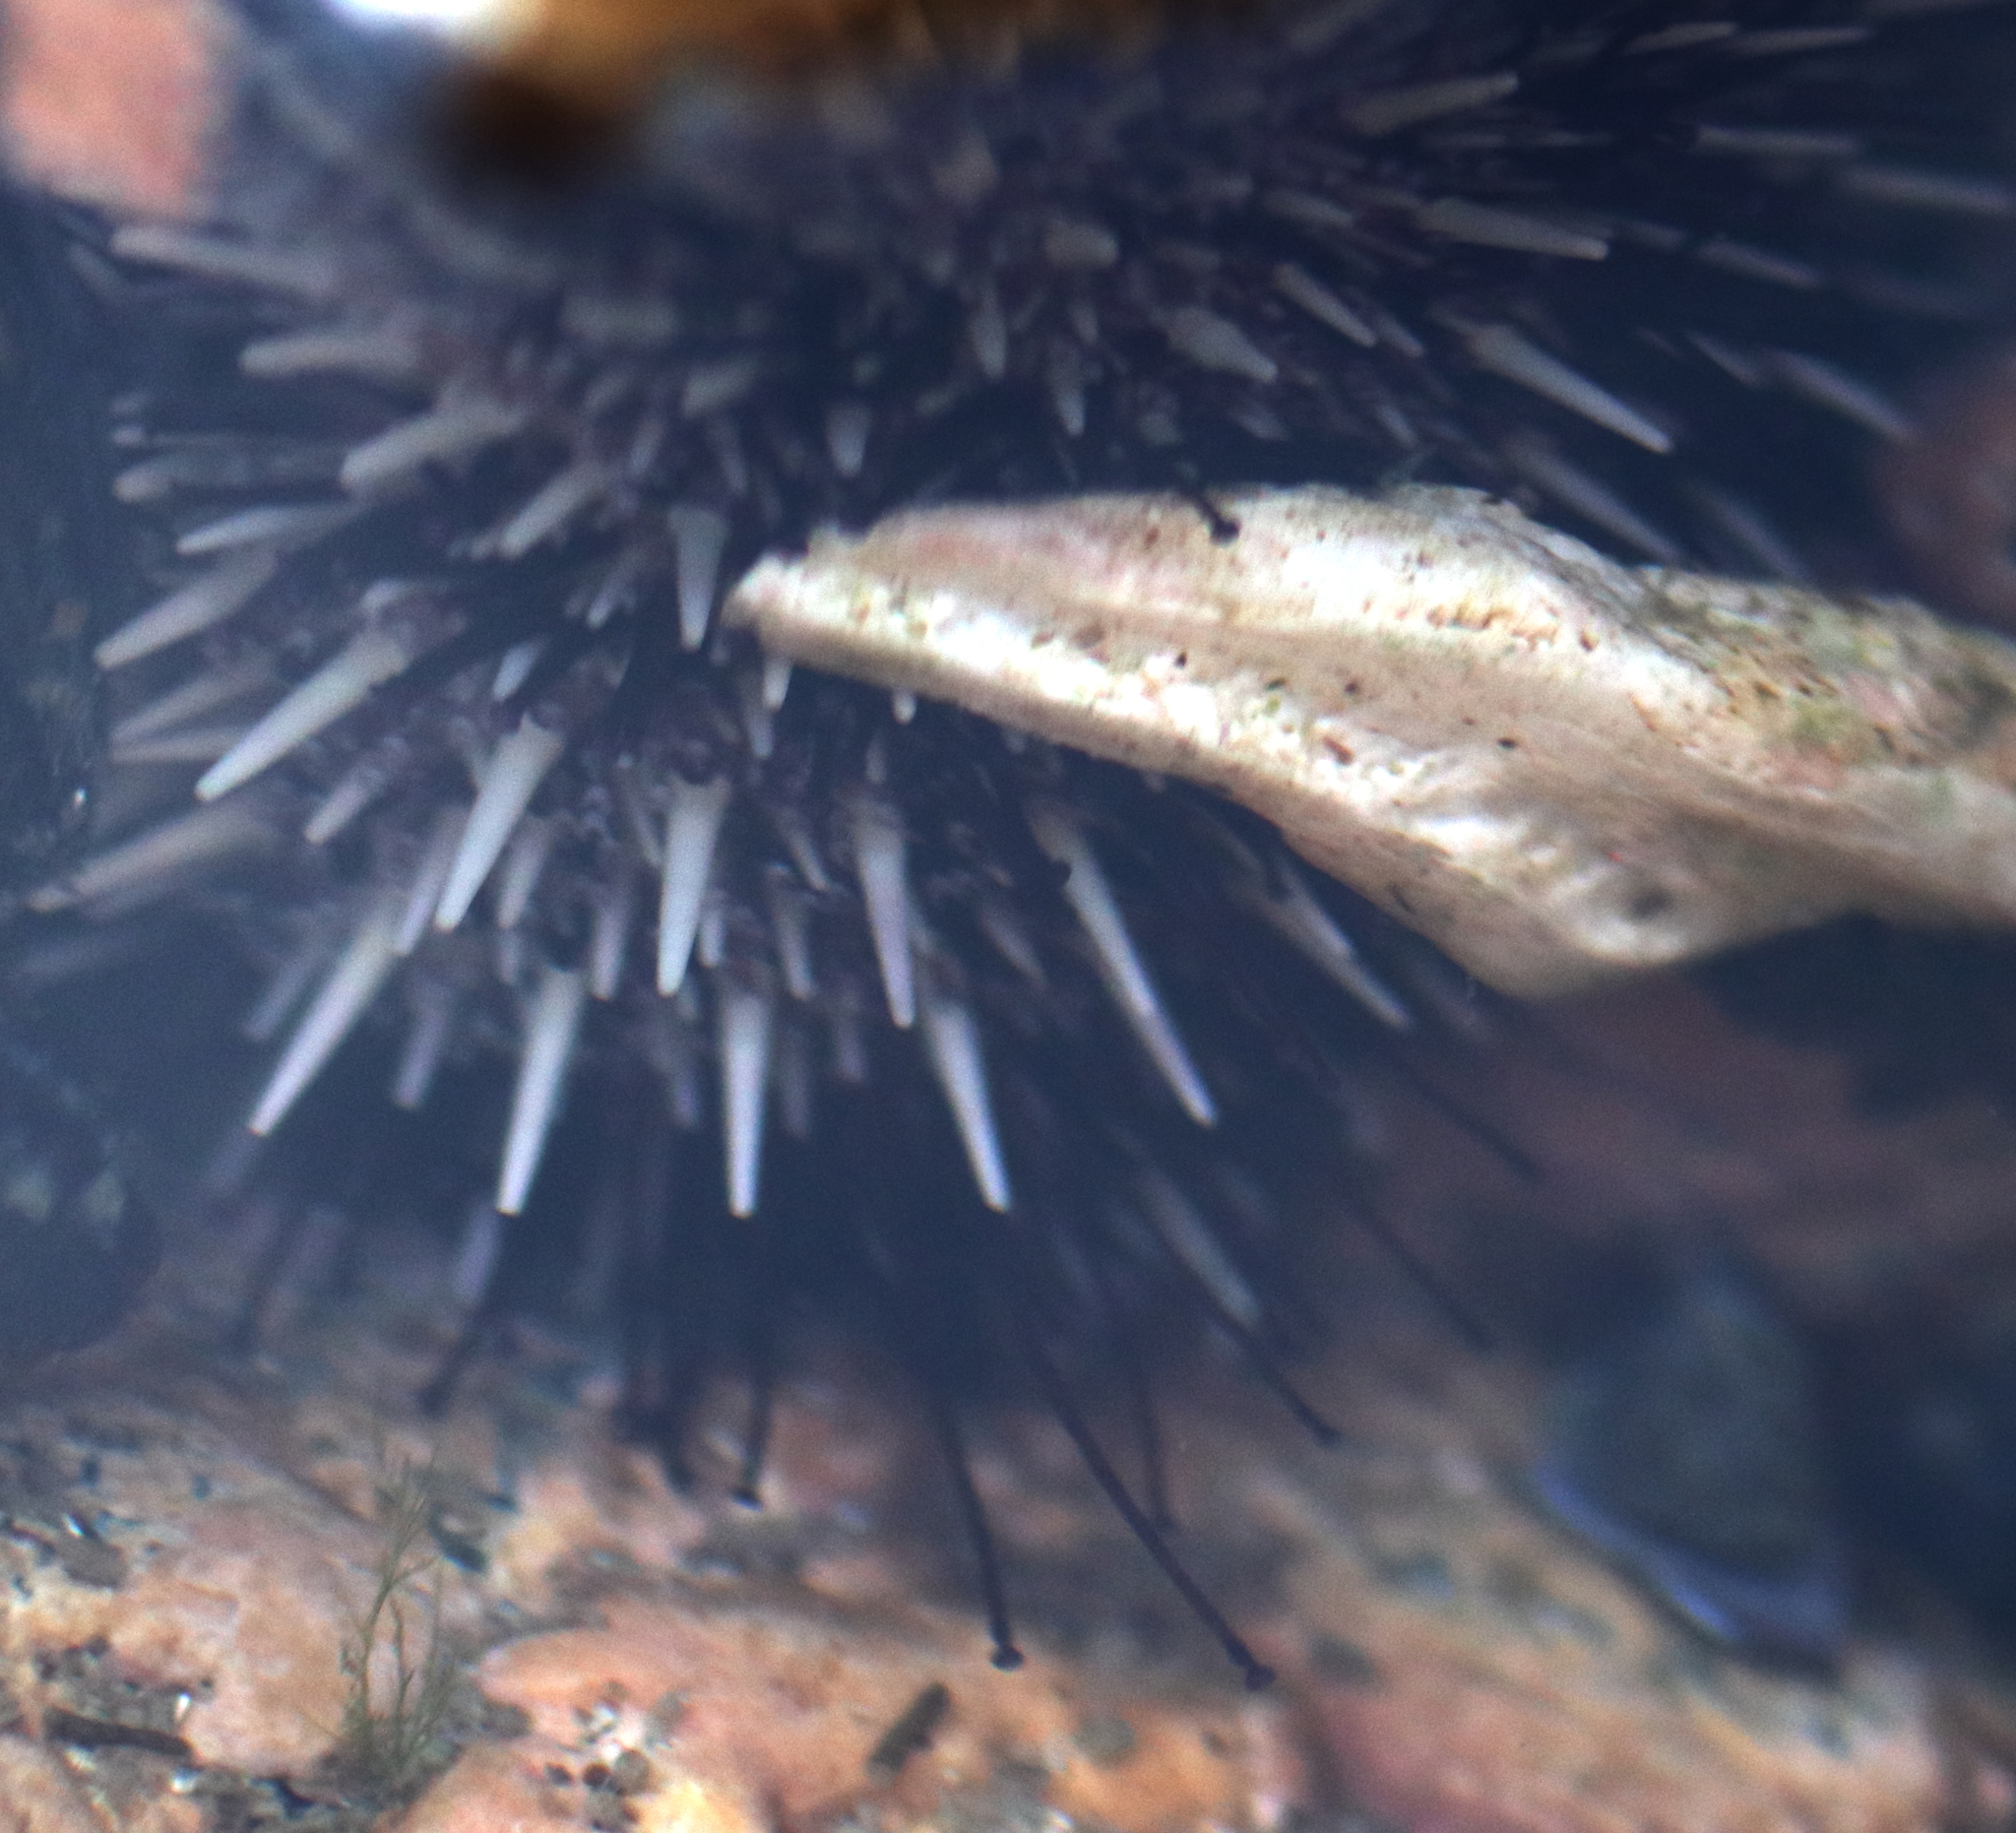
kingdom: Animalia
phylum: Echinodermata
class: Echinoidea
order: Camarodonta
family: Strongylocentrotidae
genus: Strongylocentrotus
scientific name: Strongylocentrotus droebachiensis
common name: Northern sea urchin
